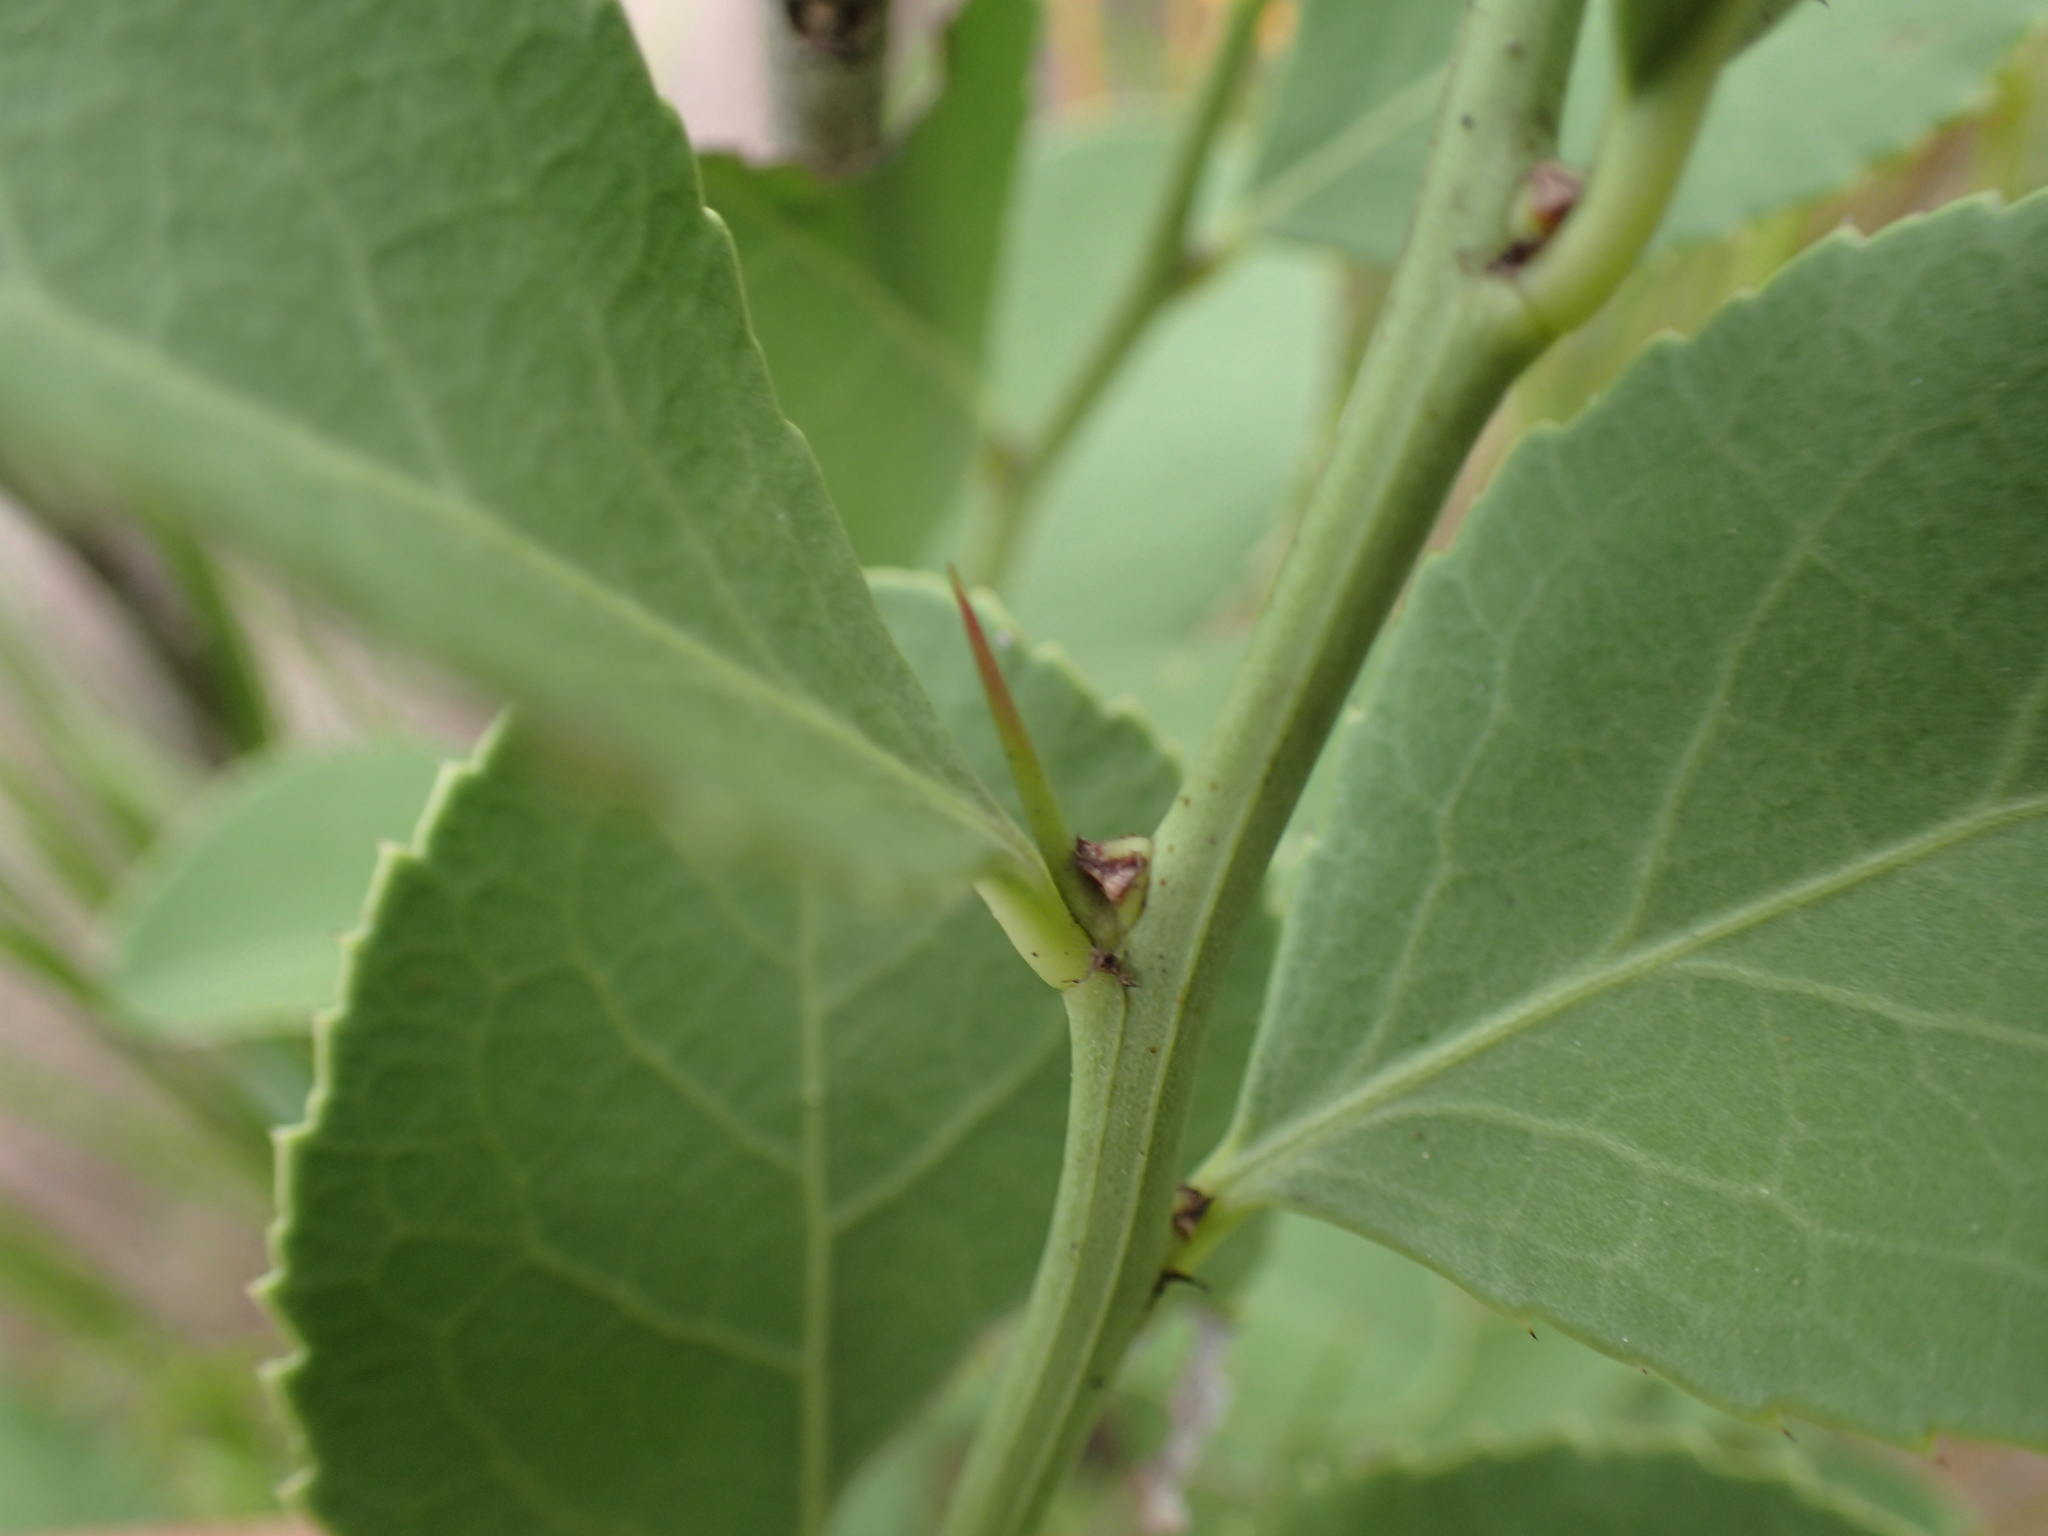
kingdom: Plantae
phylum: Tracheophyta
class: Magnoliopsida
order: Celastrales
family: Celastraceae
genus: Gymnosporia
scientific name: Gymnosporia woodii
